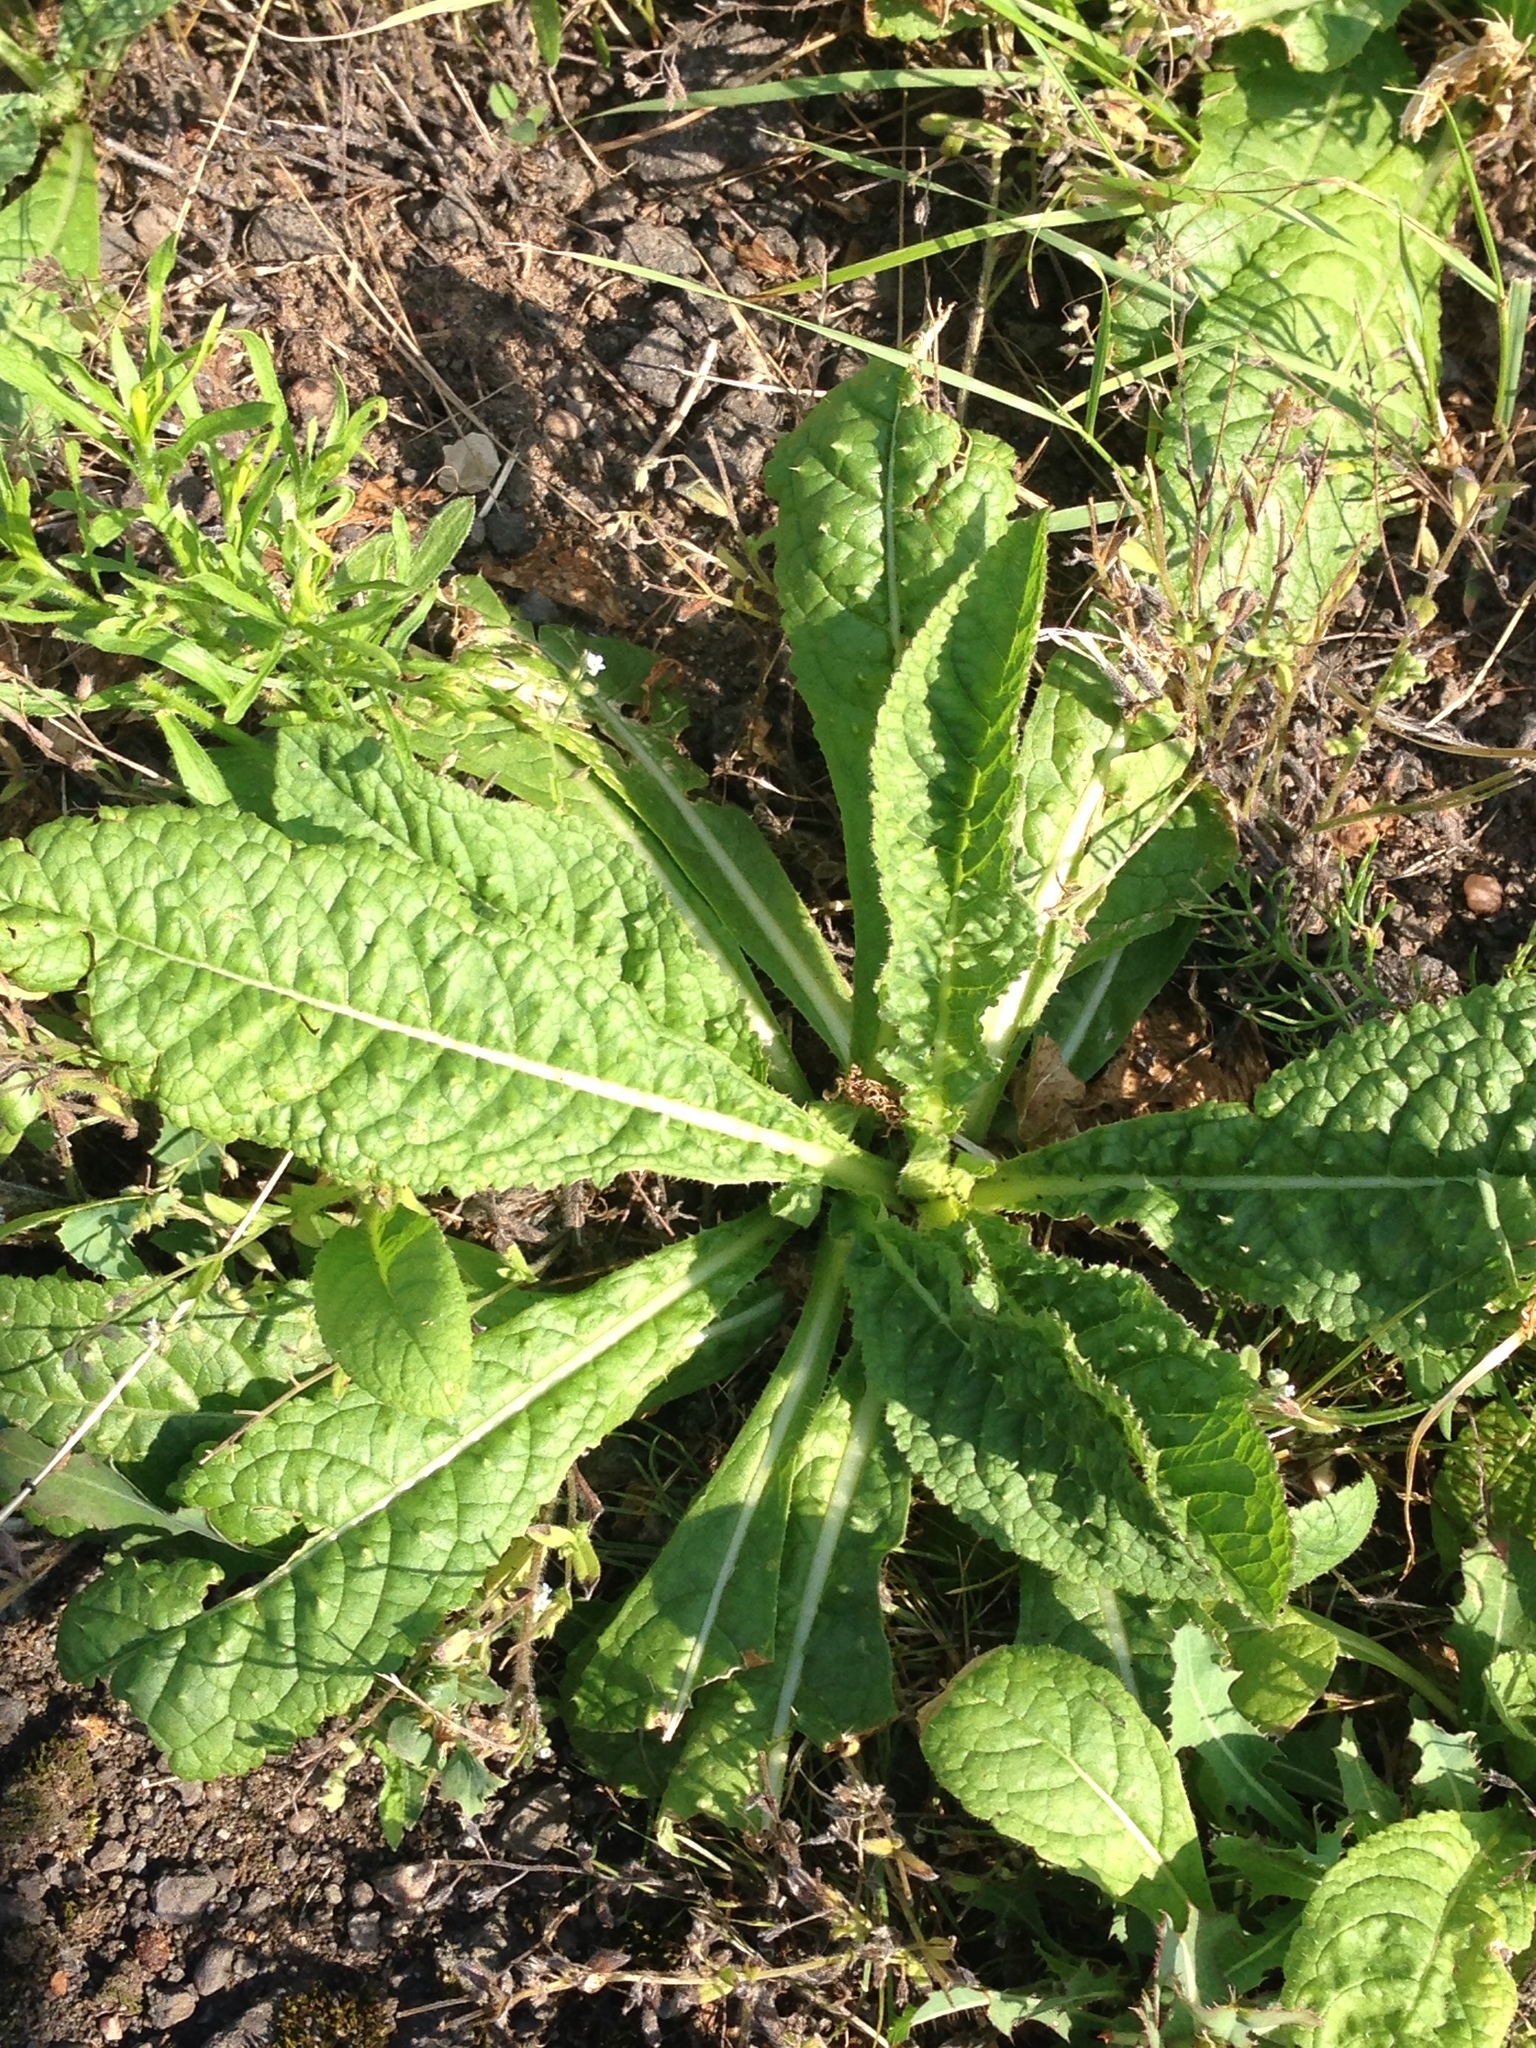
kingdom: Plantae
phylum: Tracheophyta
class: Magnoliopsida
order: Dipsacales
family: Caprifoliaceae
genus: Dipsacus
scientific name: Dipsacus fullonum
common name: Teasel
